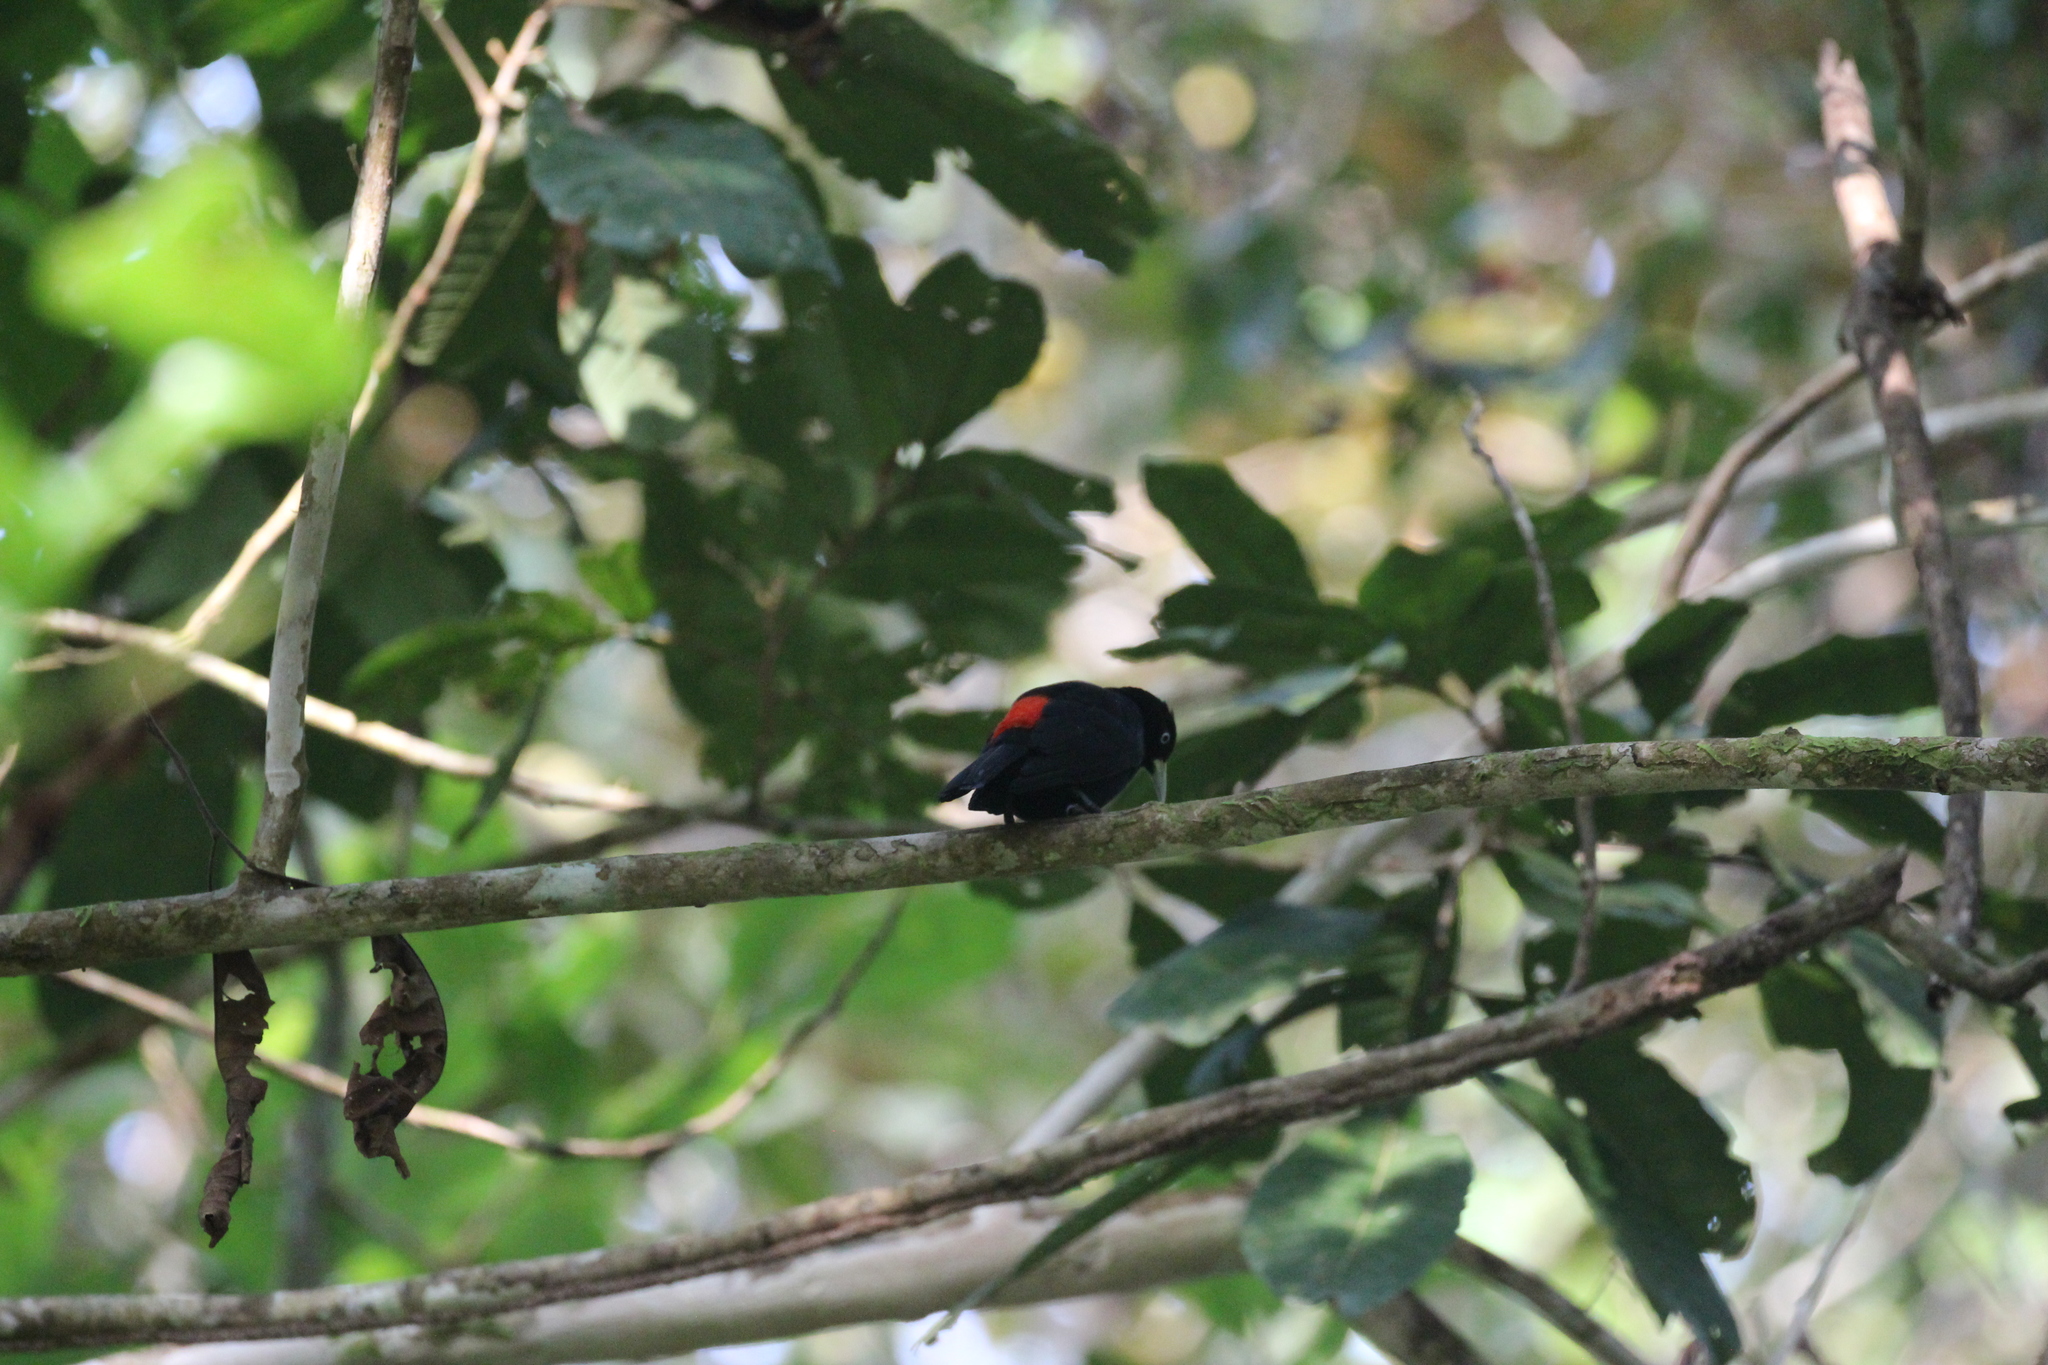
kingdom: Animalia
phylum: Chordata
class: Aves
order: Passeriformes
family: Icteridae
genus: Cacicus
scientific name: Cacicus uropygialis
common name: Scarlet-rumped cacique
